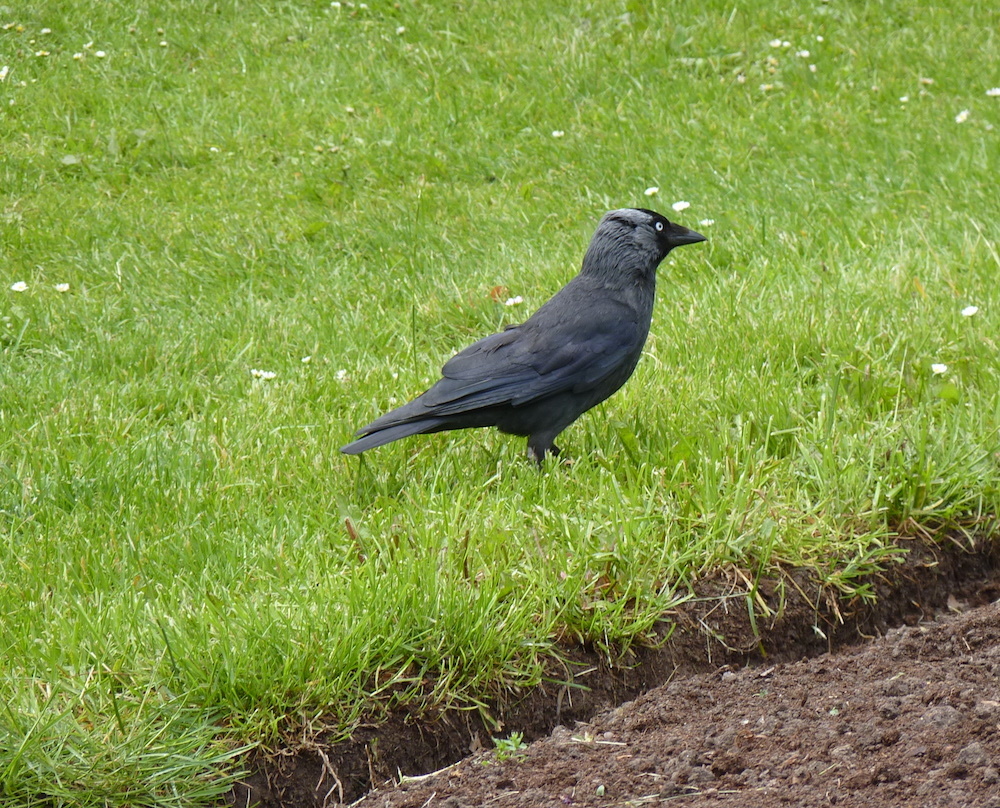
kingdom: Animalia
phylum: Chordata
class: Aves
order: Passeriformes
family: Corvidae
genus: Coloeus
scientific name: Coloeus monedula
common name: Western jackdaw
